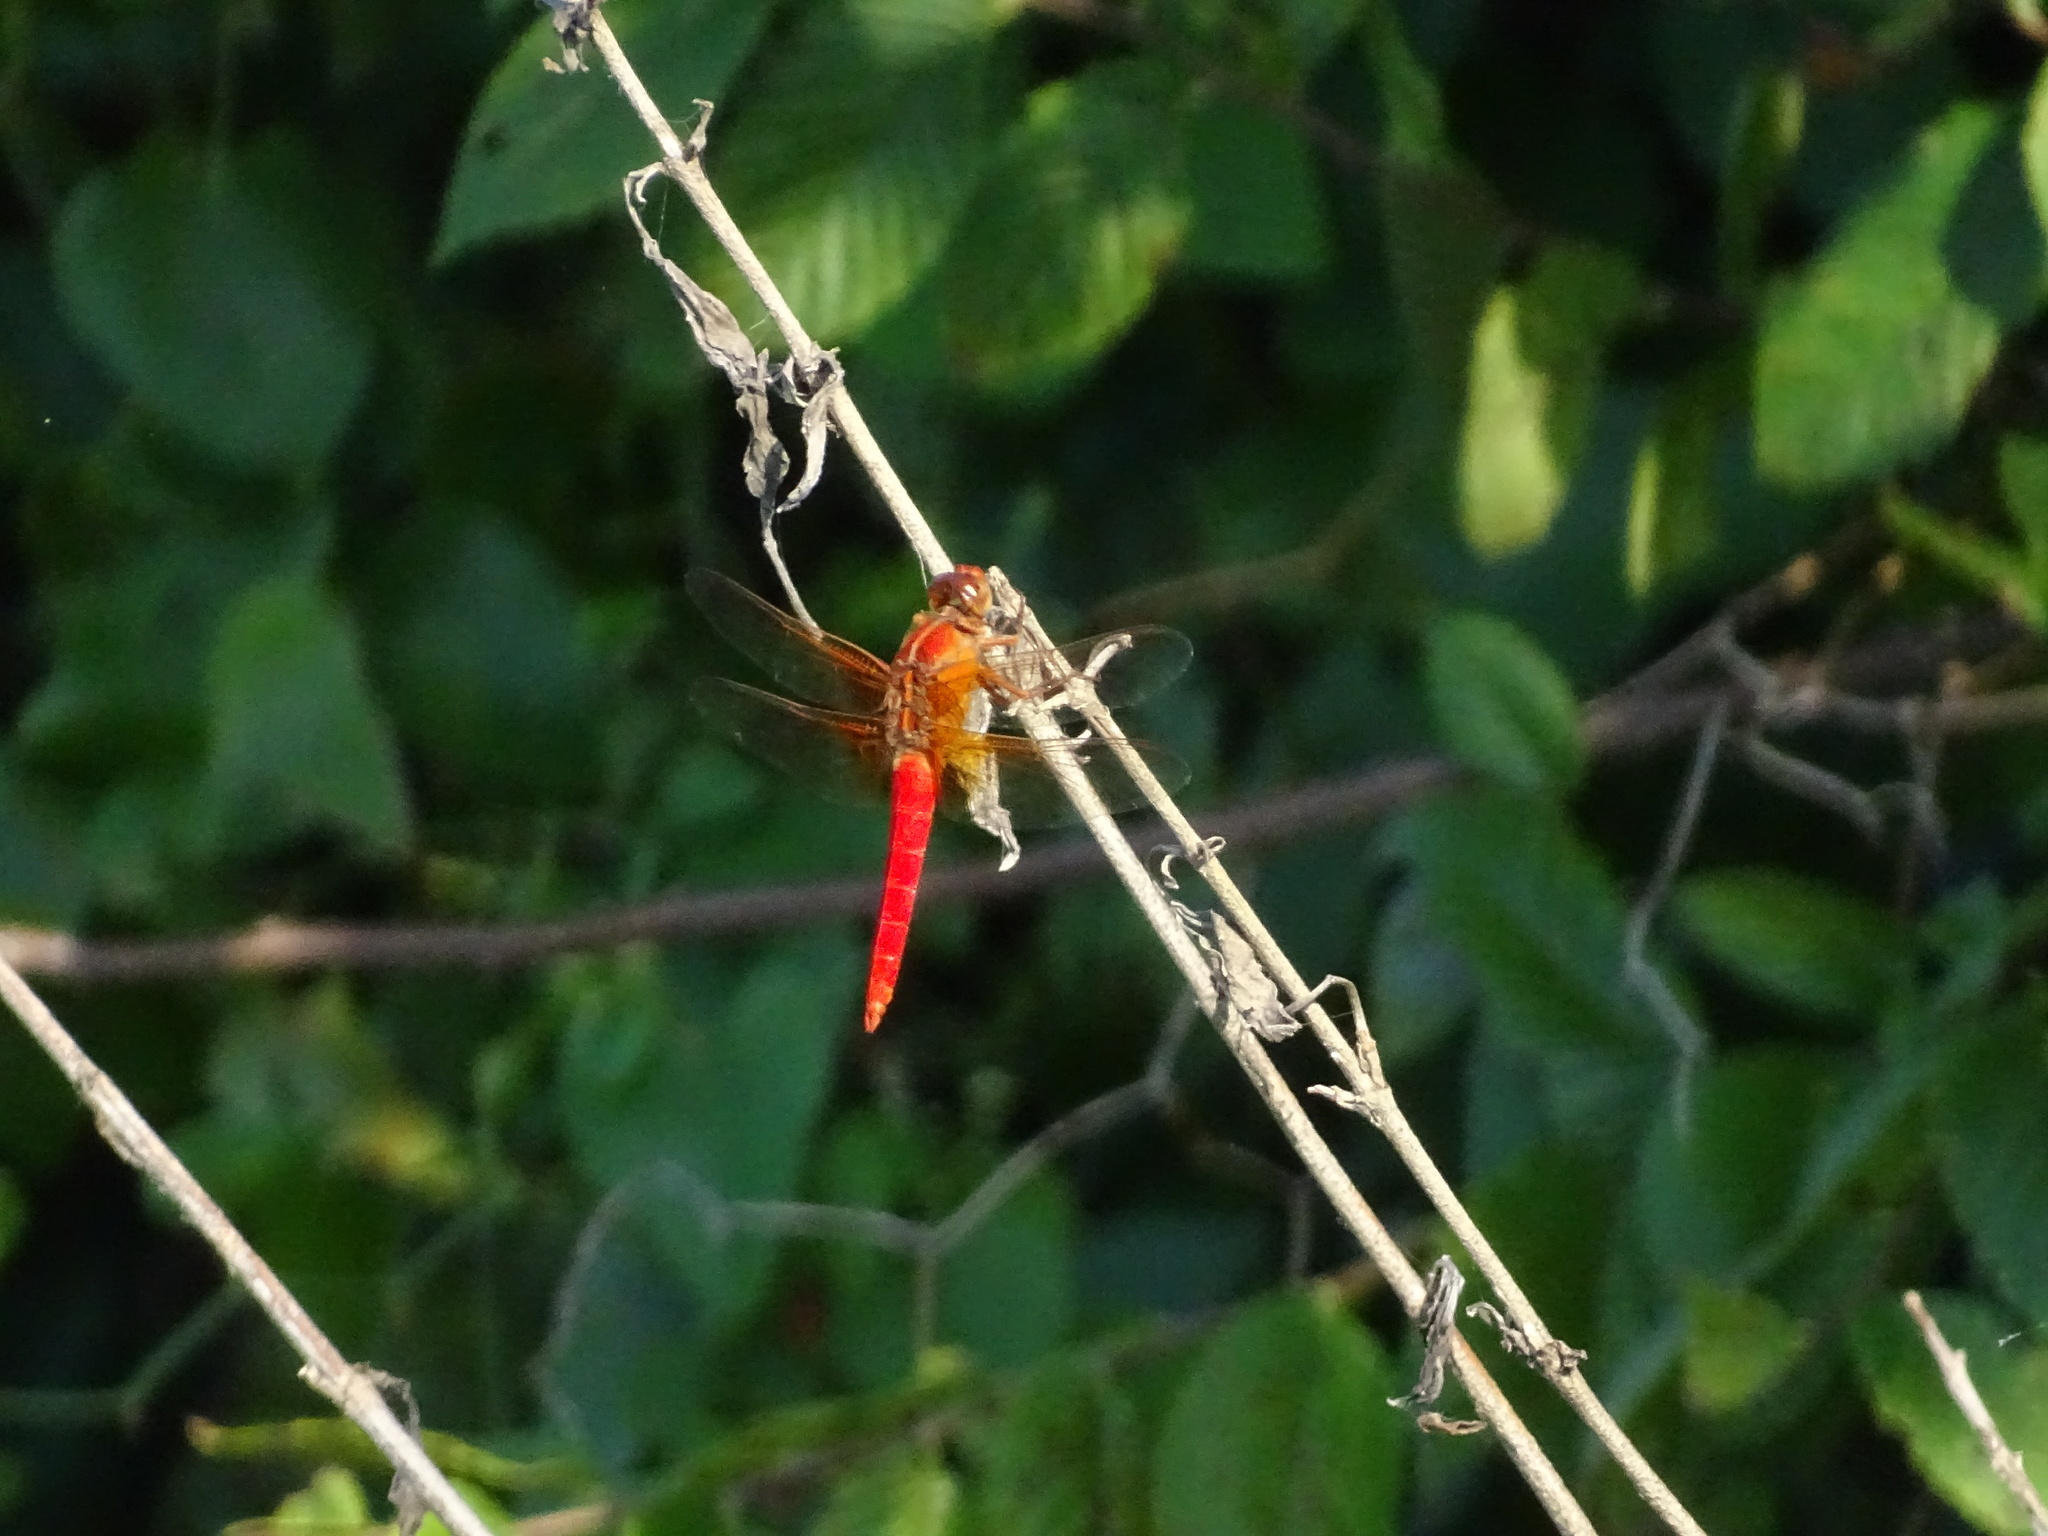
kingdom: Animalia
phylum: Arthropoda
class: Insecta
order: Odonata
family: Libellulidae
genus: Libellula
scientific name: Libellula croceipennis
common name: Neon skimmer
